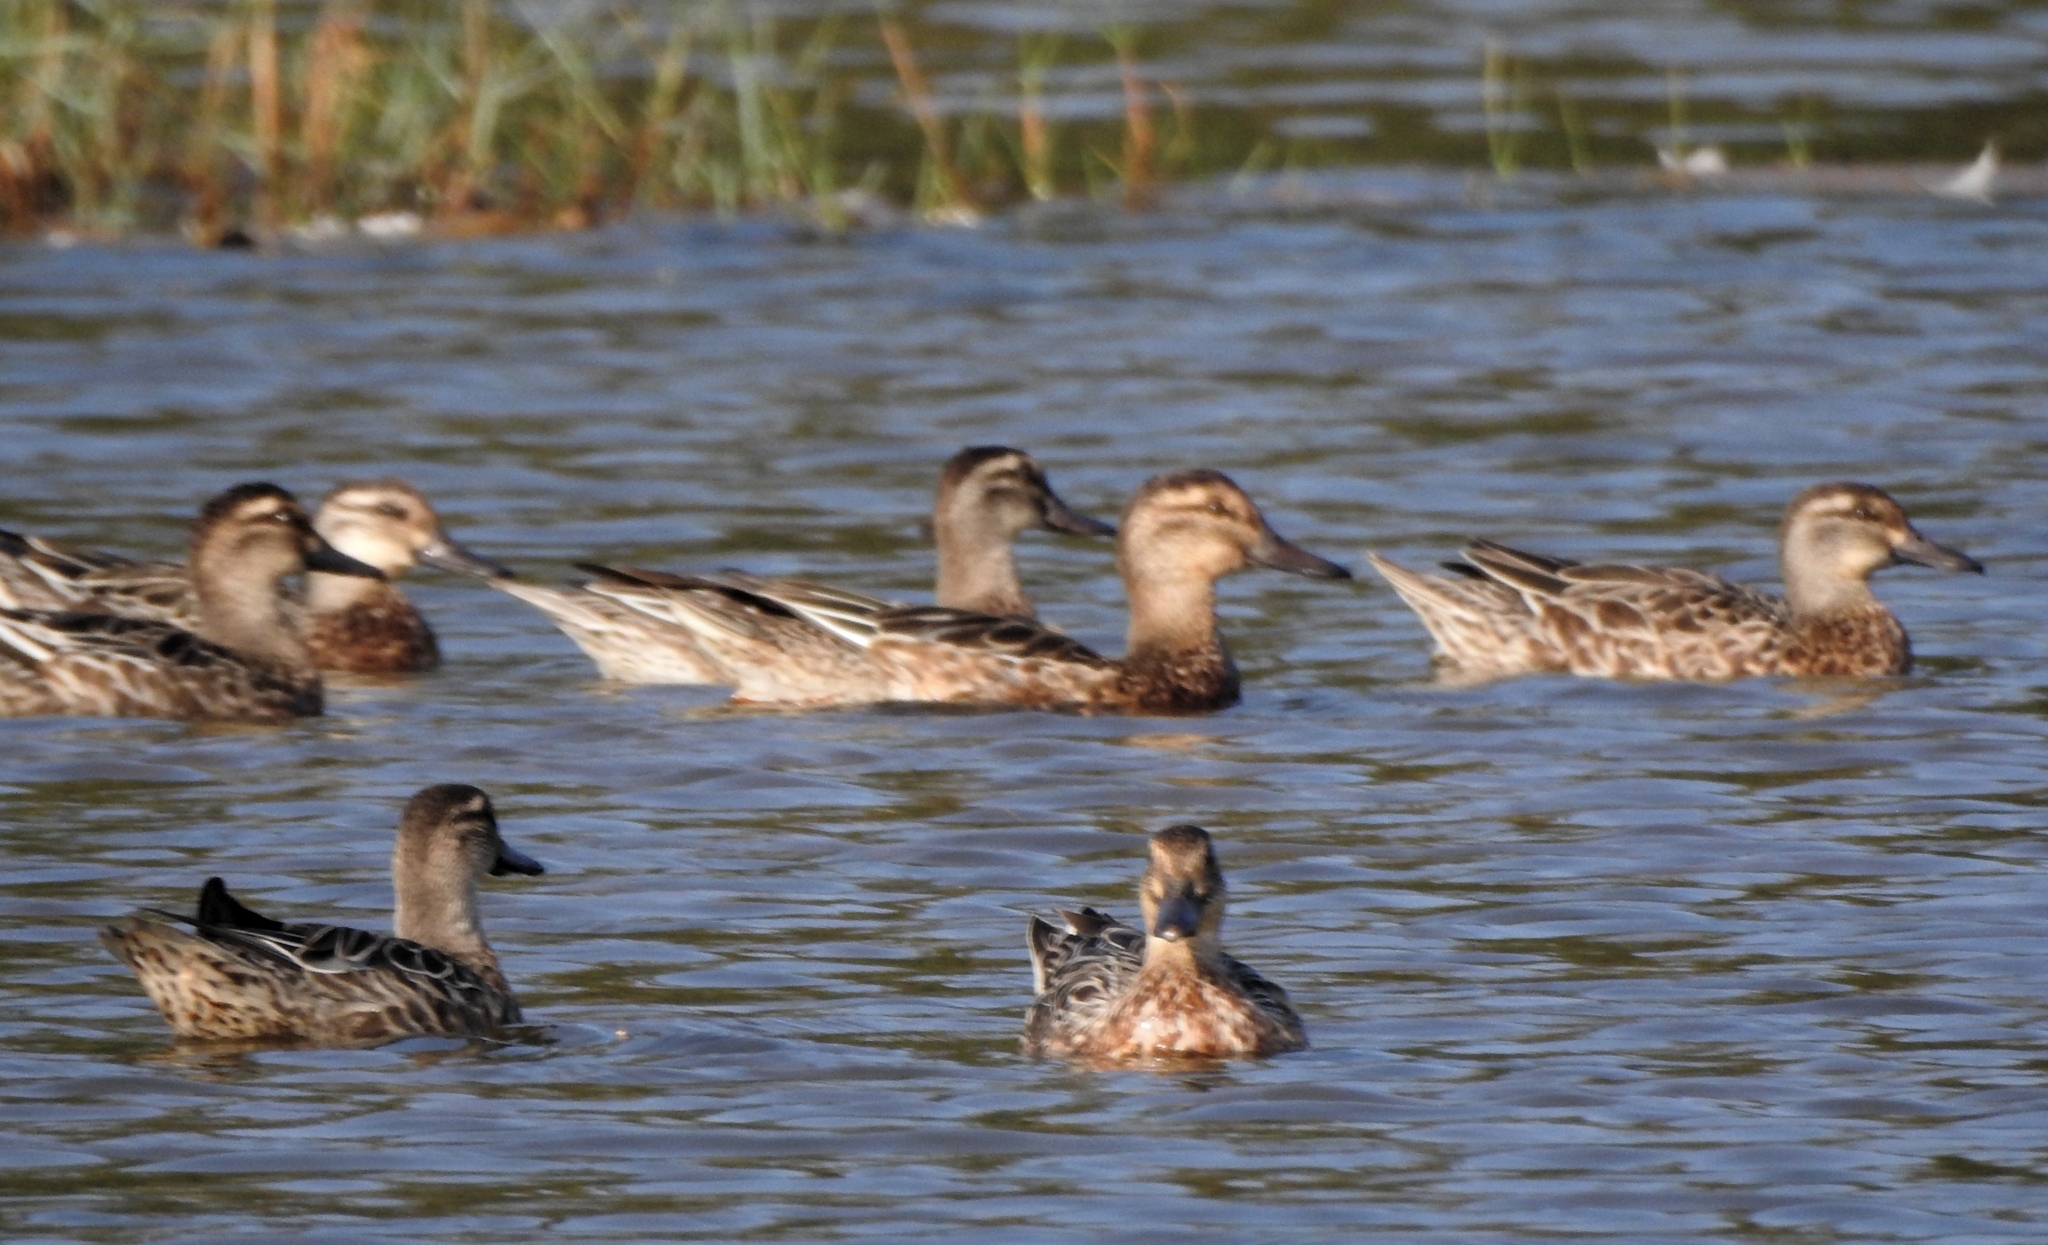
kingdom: Animalia
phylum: Chordata
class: Aves
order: Anseriformes
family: Anatidae
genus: Spatula
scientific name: Spatula querquedula
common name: Garganey
